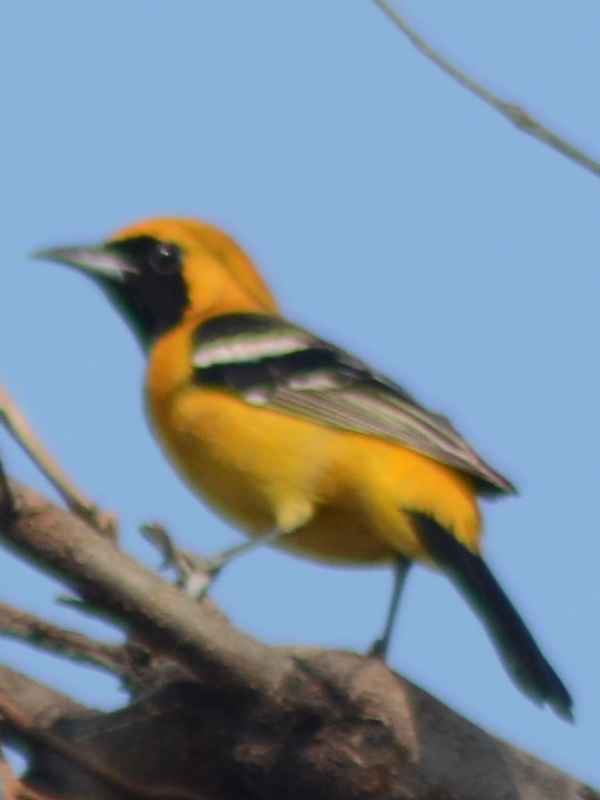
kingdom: Animalia
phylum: Chordata
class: Aves
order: Passeriformes
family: Icteridae
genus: Icterus
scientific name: Icterus cucullatus
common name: Hooded oriole
